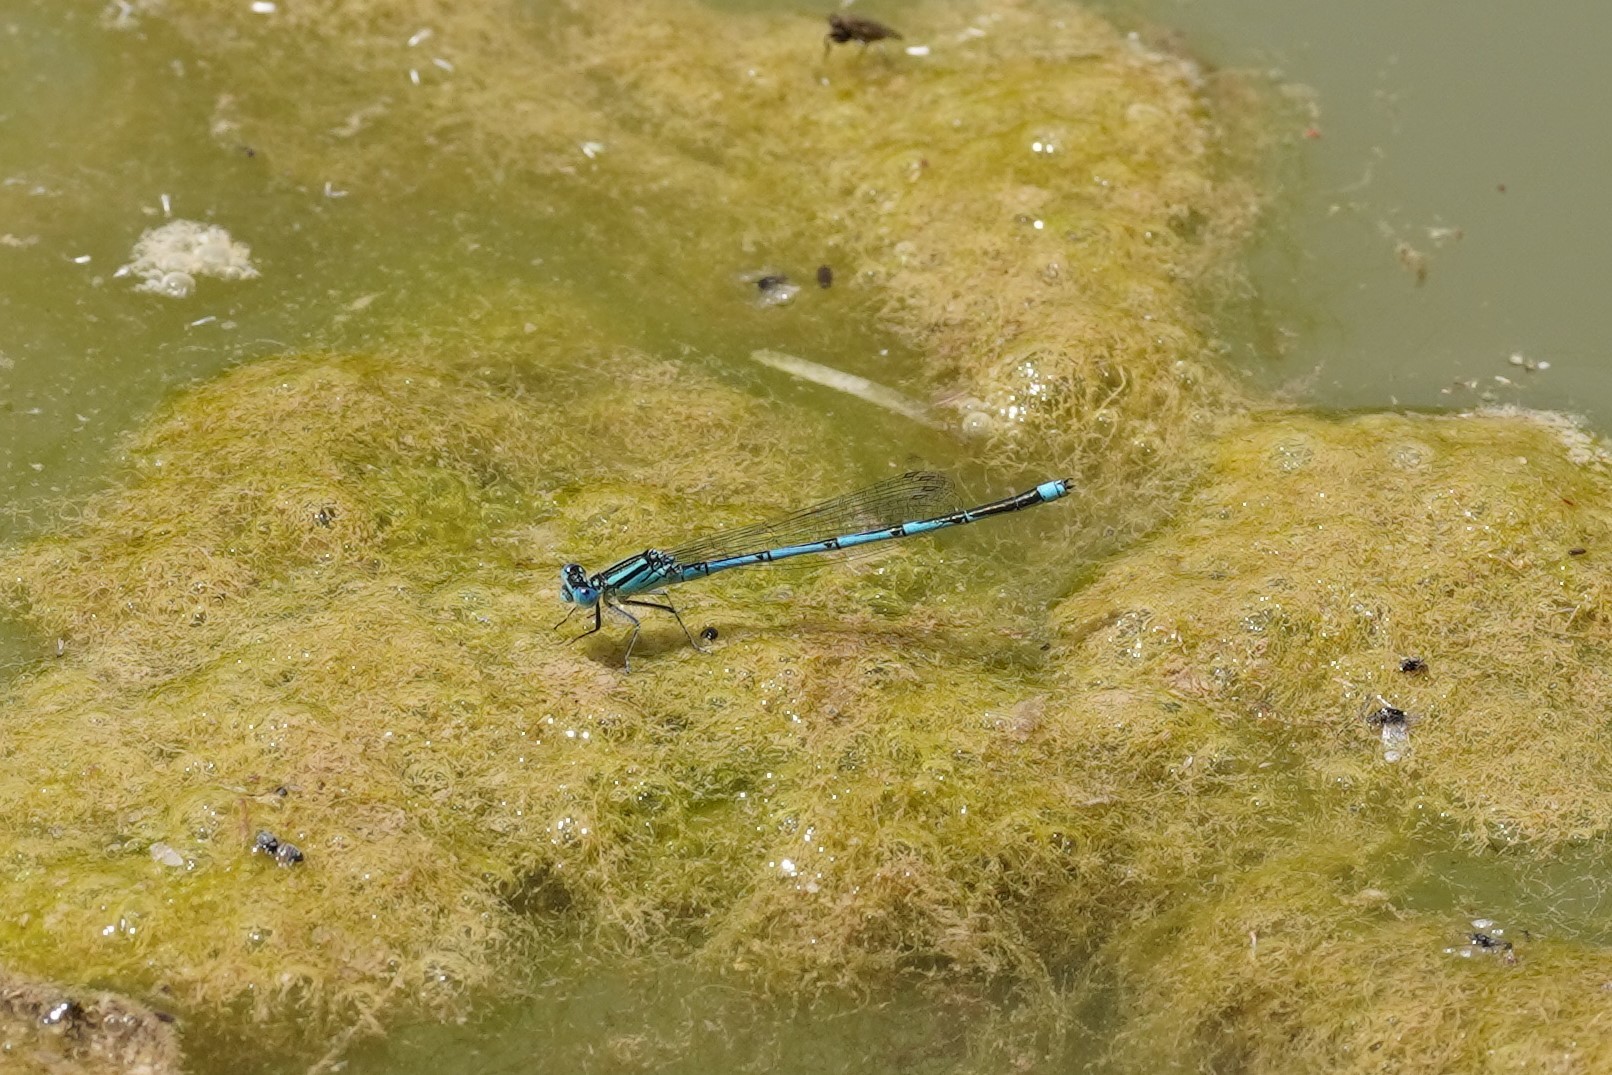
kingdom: Animalia
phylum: Arthropoda
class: Insecta
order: Odonata
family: Coenagrionidae
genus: Erythromma
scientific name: Erythromma lindenii
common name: Blue-eye
